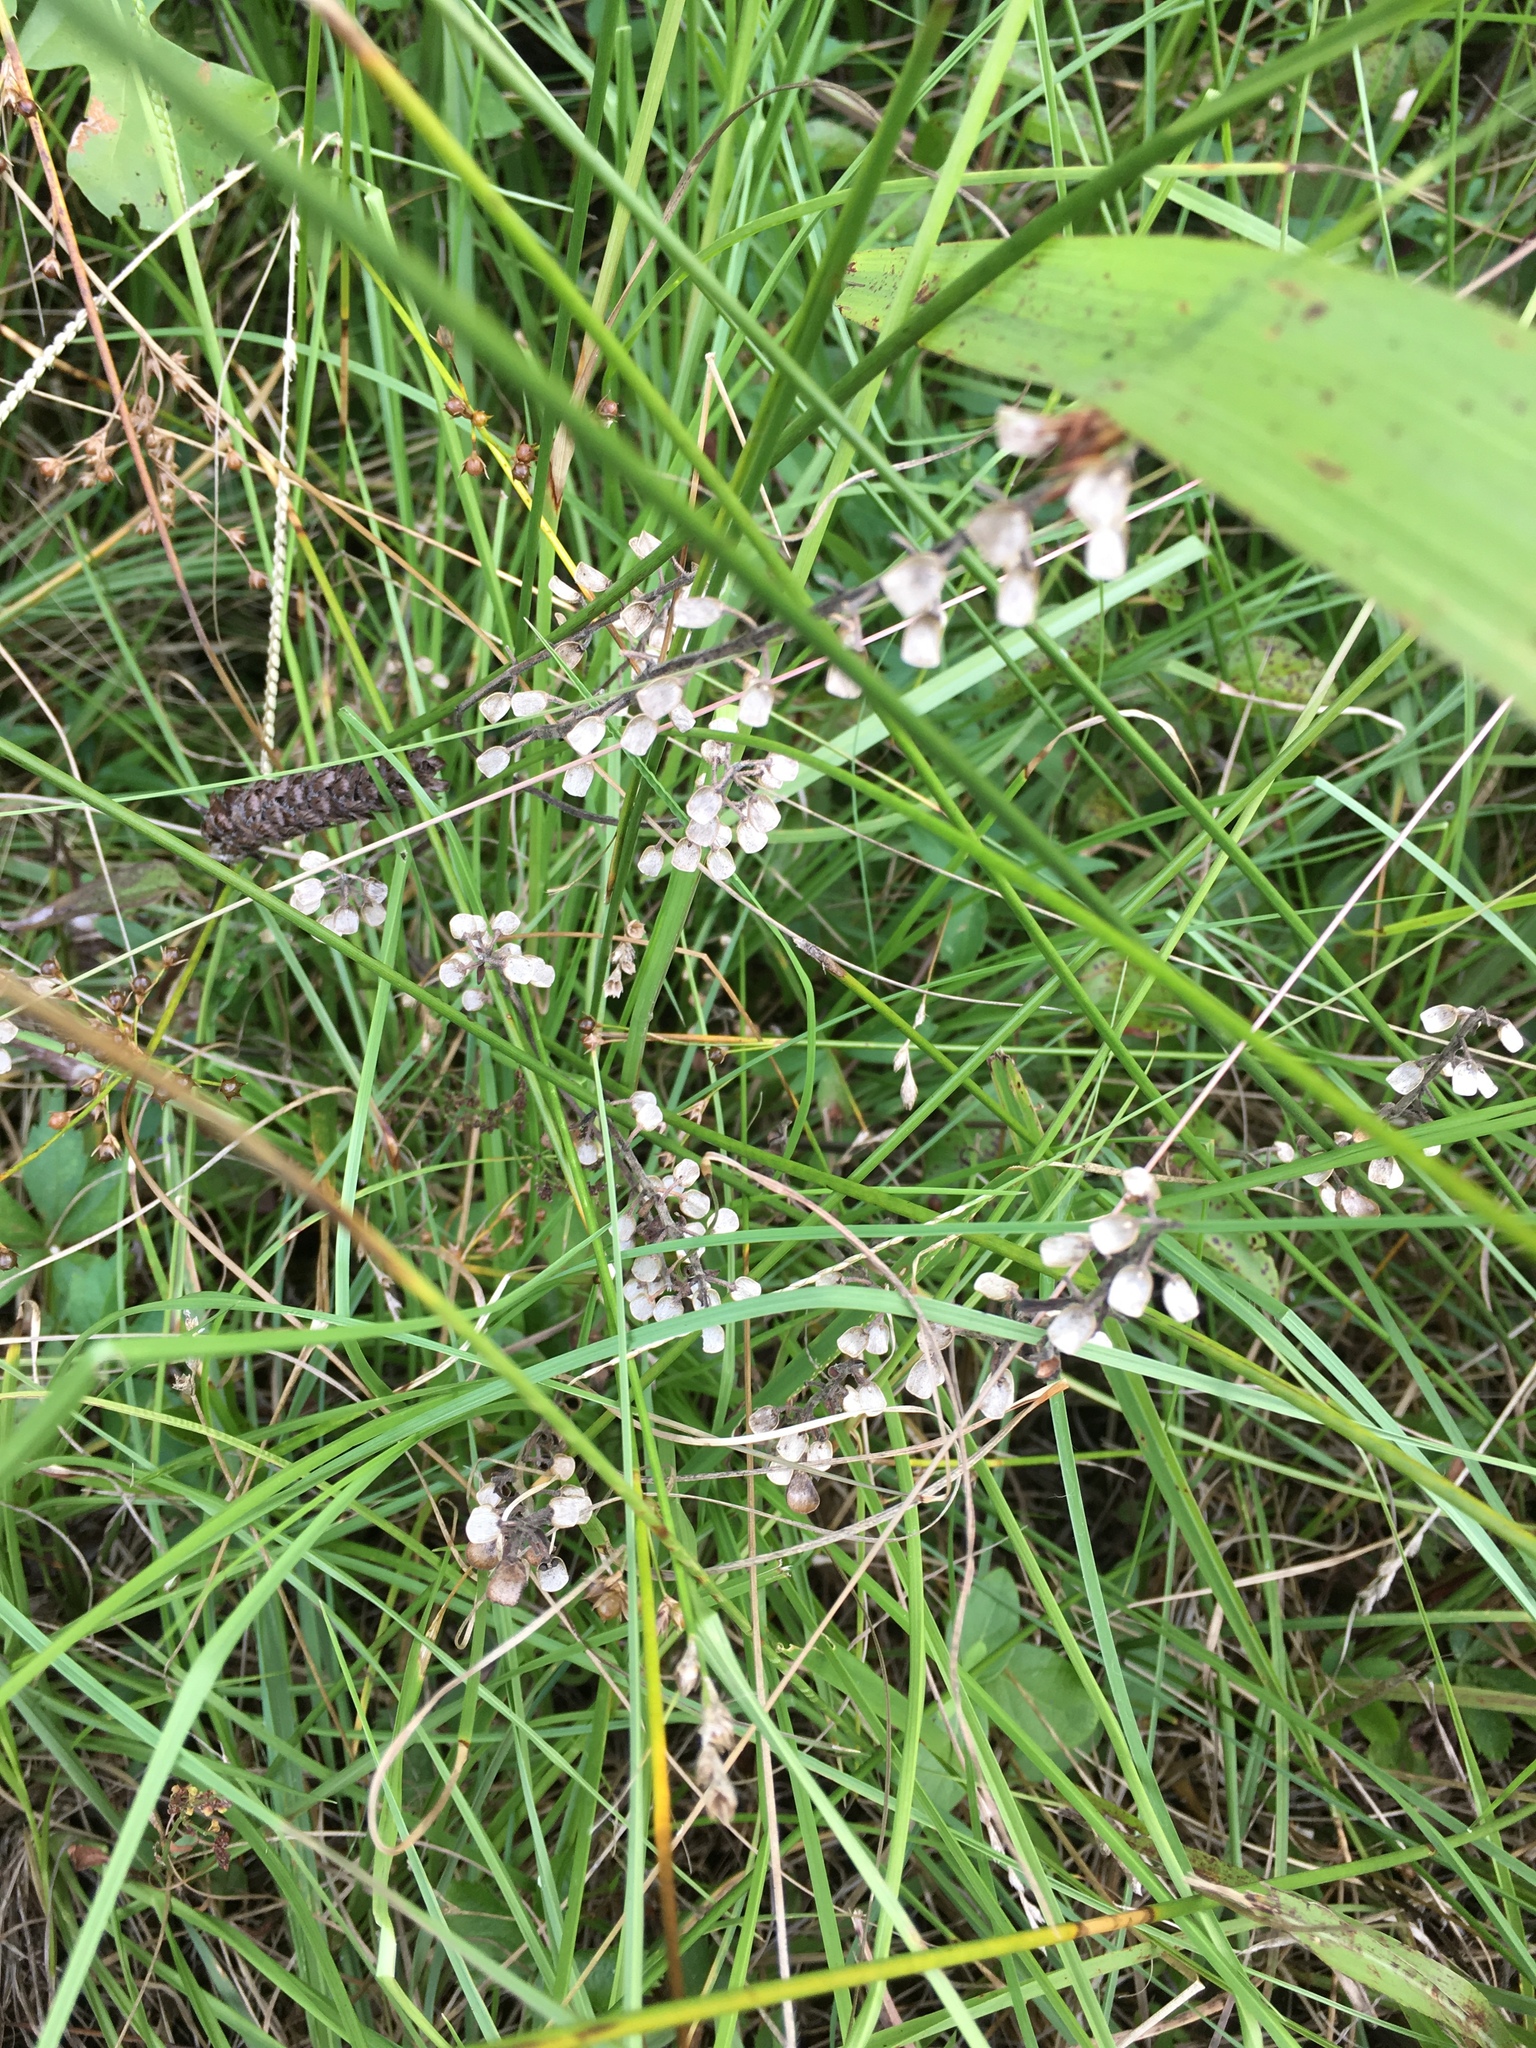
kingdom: Plantae
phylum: Tracheophyta
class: Magnoliopsida
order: Lamiales
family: Lamiaceae
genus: Scutellaria
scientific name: Scutellaria integrifolia
